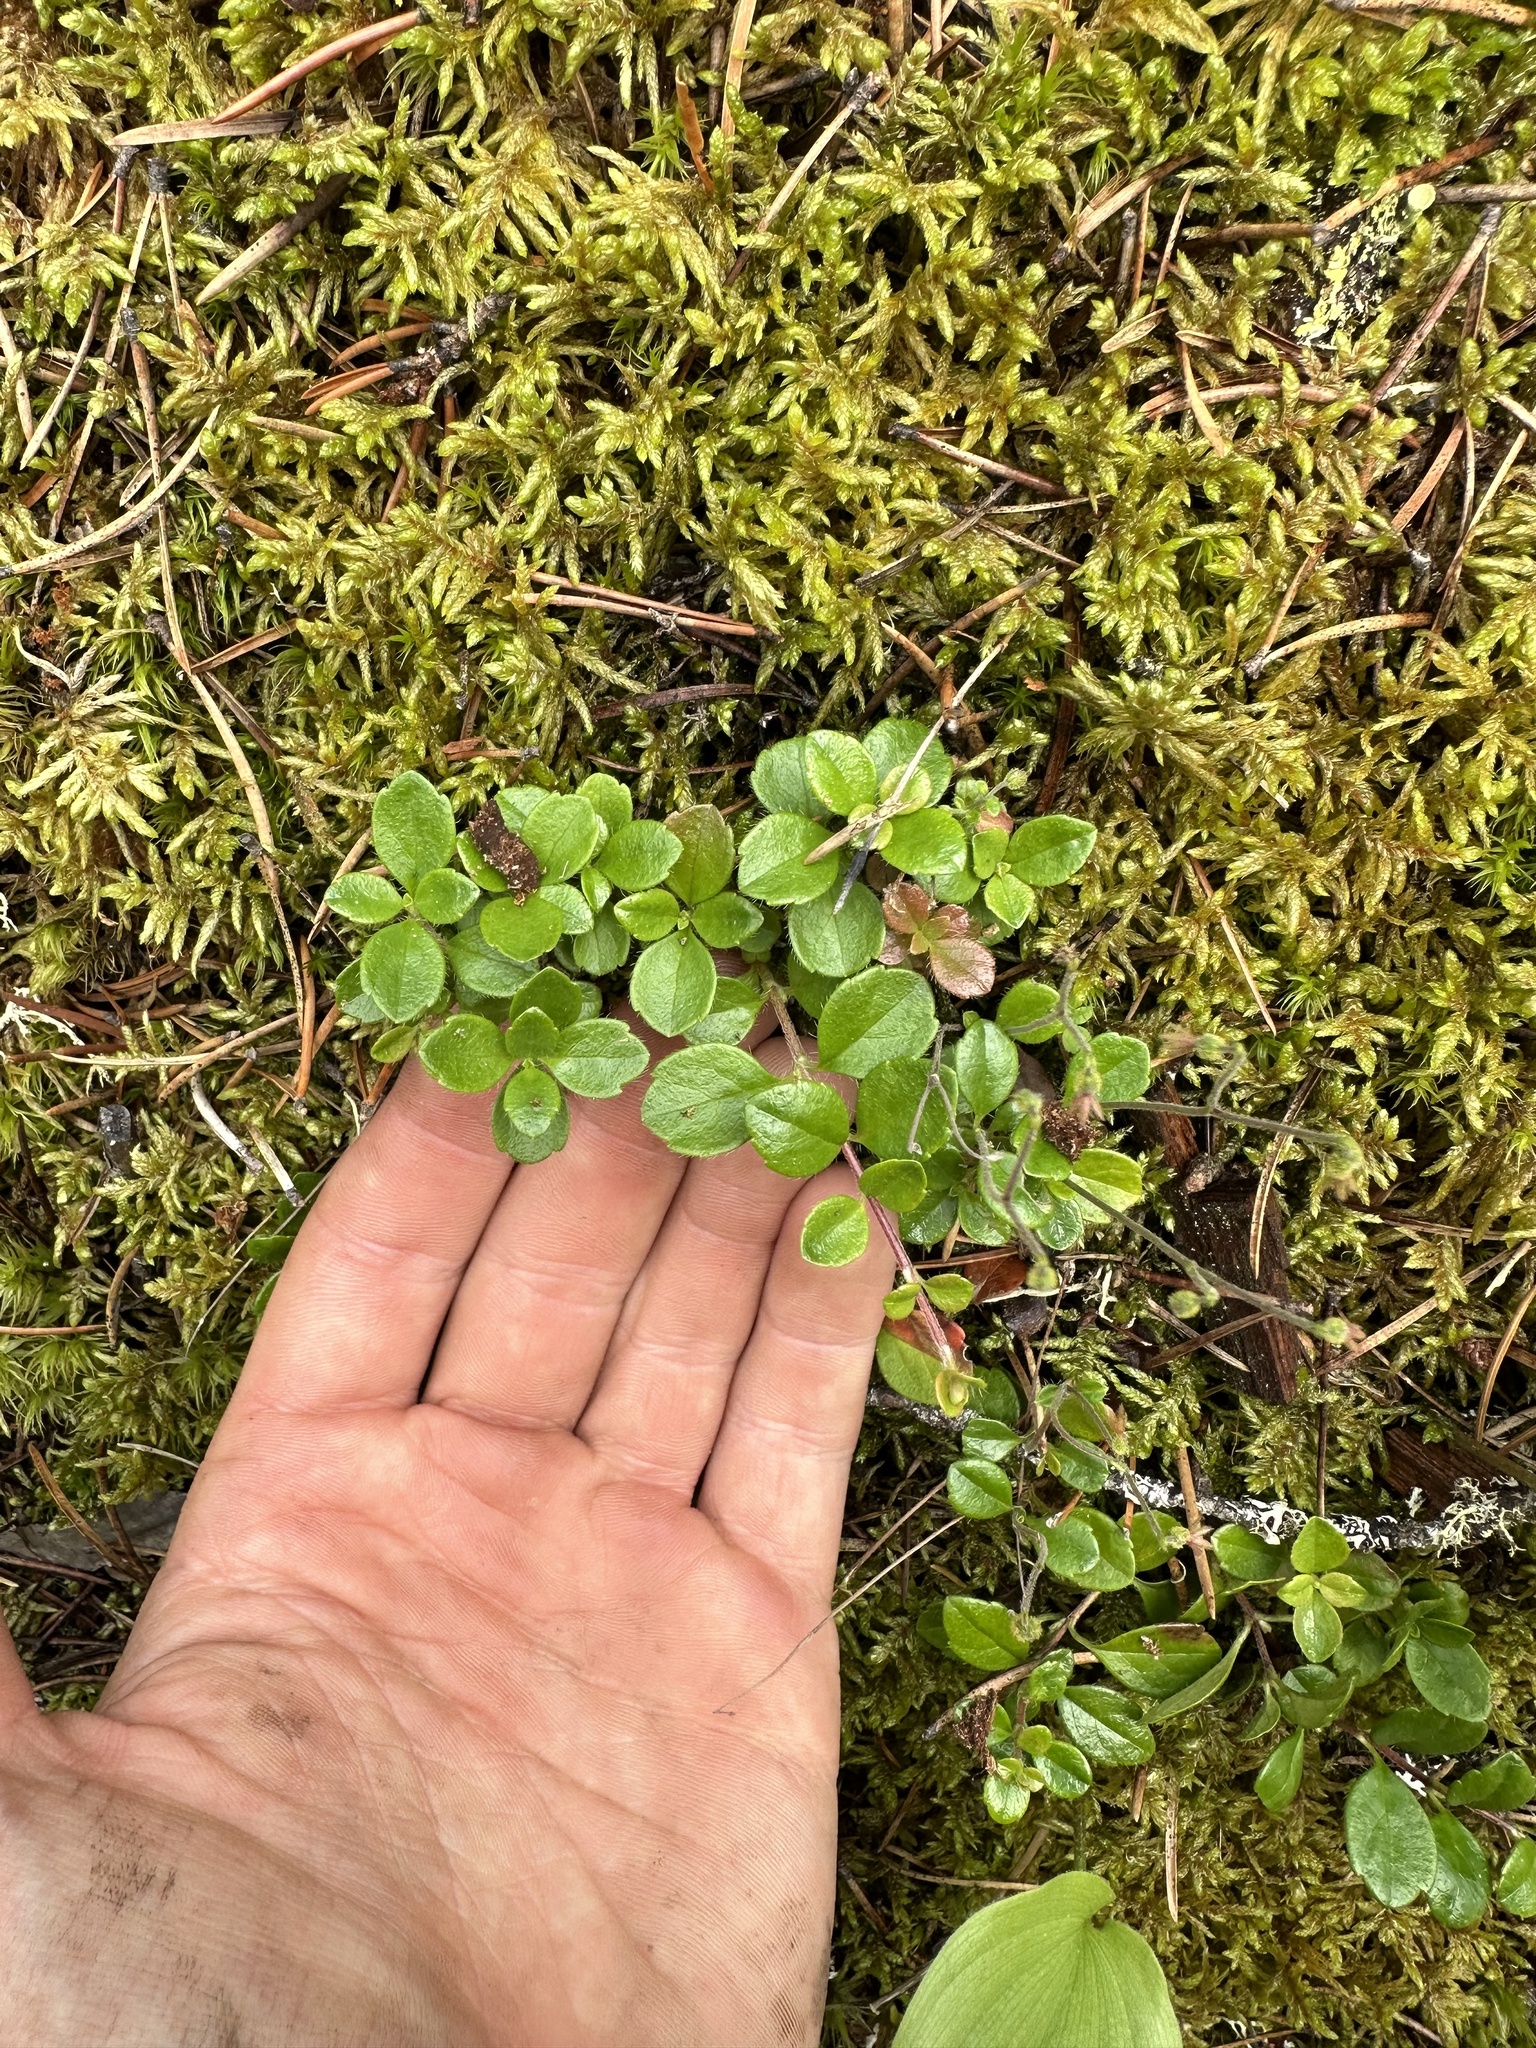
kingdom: Plantae
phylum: Tracheophyta
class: Magnoliopsida
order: Dipsacales
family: Caprifoliaceae
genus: Linnaea
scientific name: Linnaea borealis
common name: Twinflower
